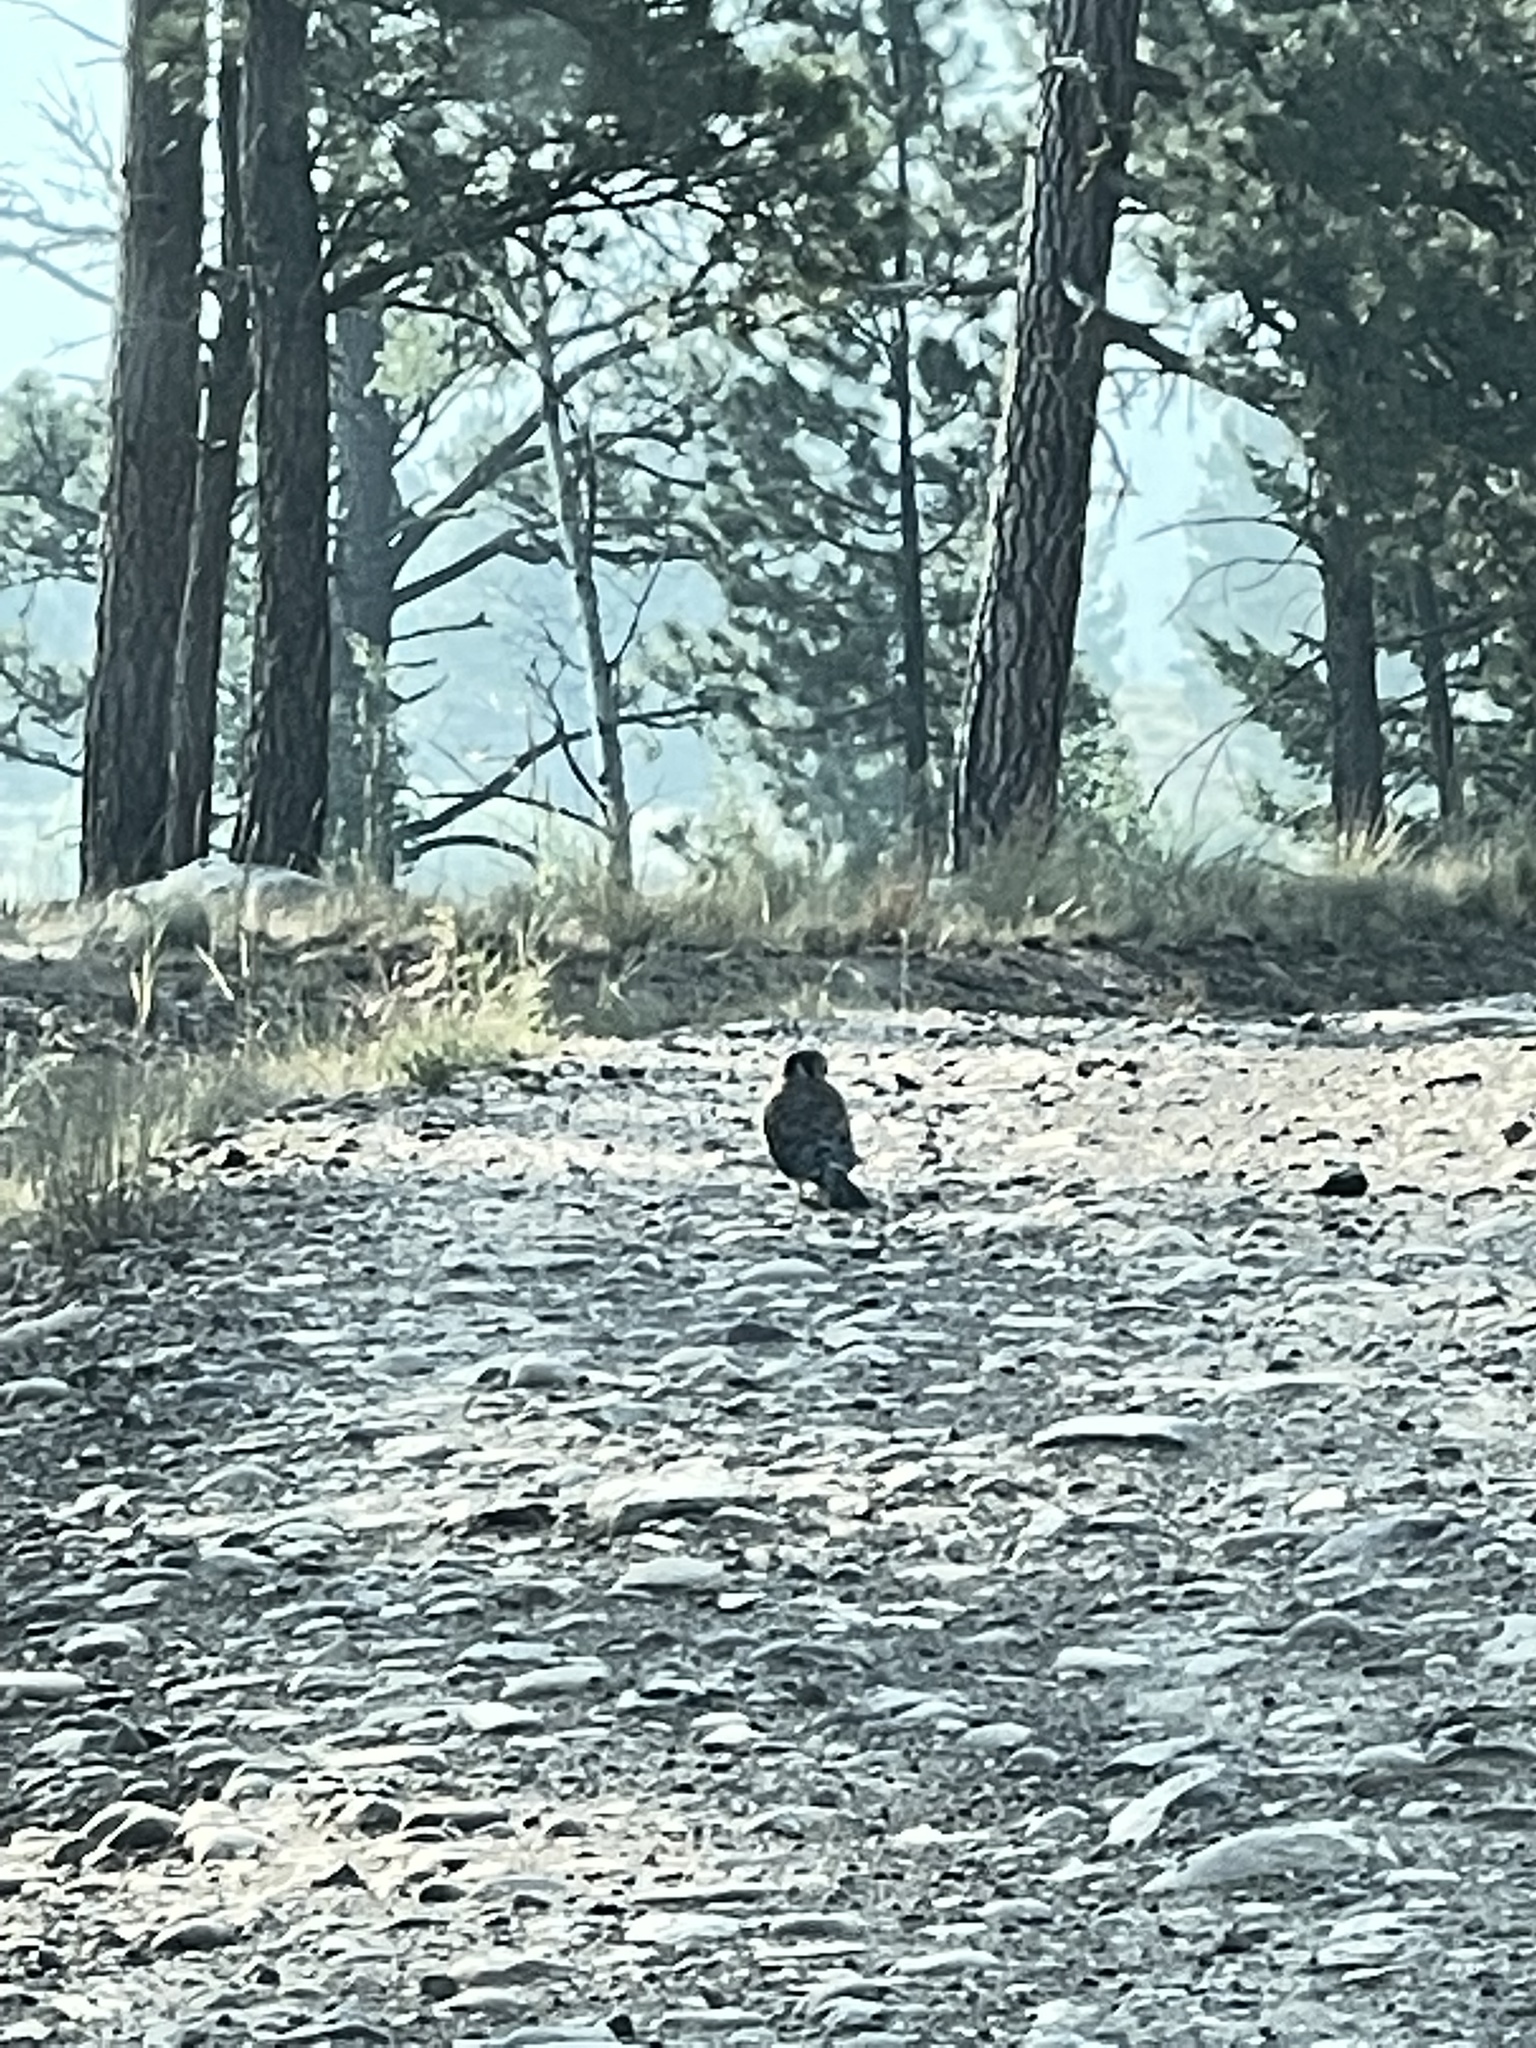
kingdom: Animalia
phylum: Chordata
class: Aves
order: Falconiformes
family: Falconidae
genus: Falco
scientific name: Falco sparverius
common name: American kestrel
